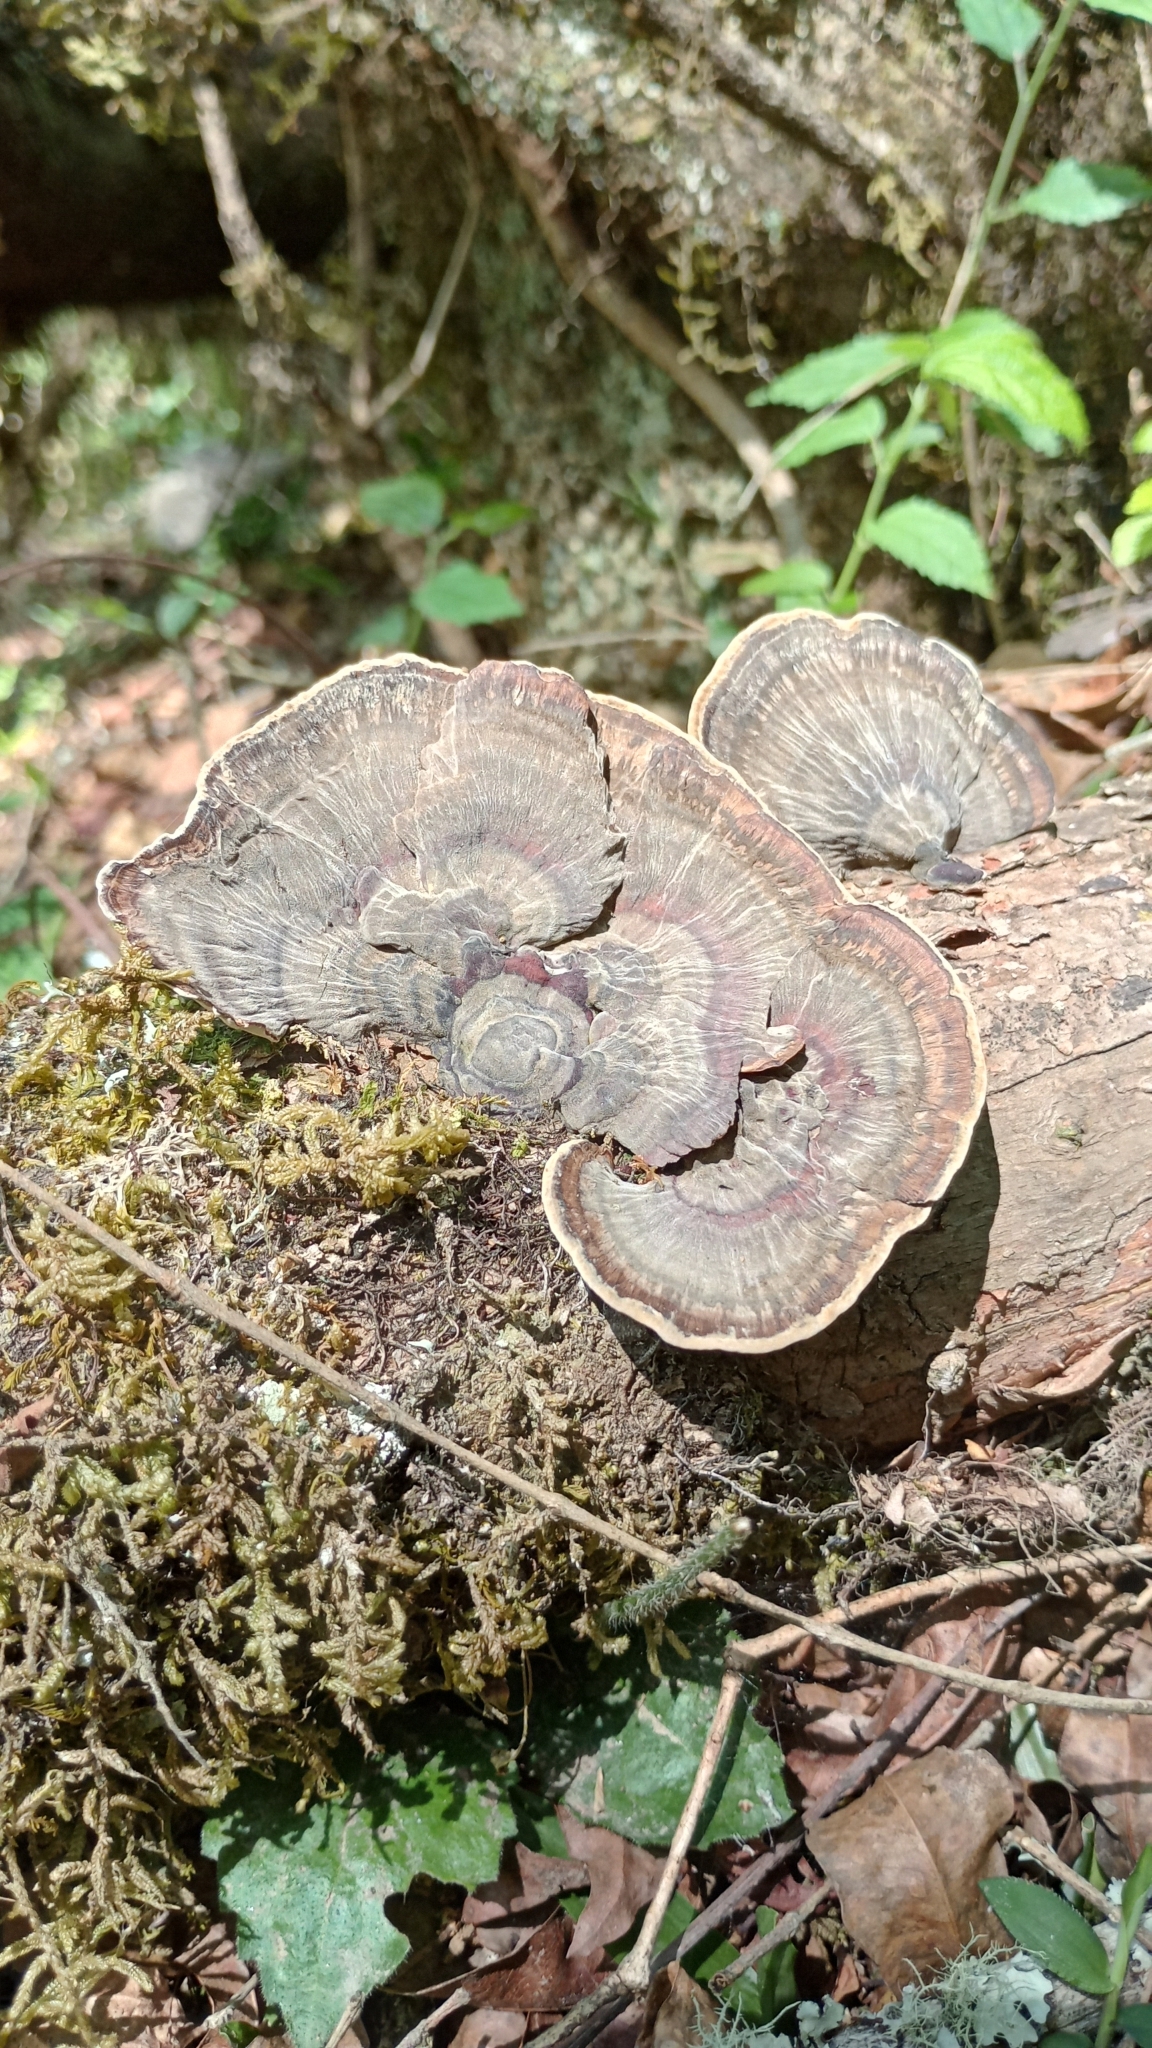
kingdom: Fungi
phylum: Basidiomycota
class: Agaricomycetes
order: Polyporales
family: Polyporaceae
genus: Trametes
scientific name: Trametes variegata
